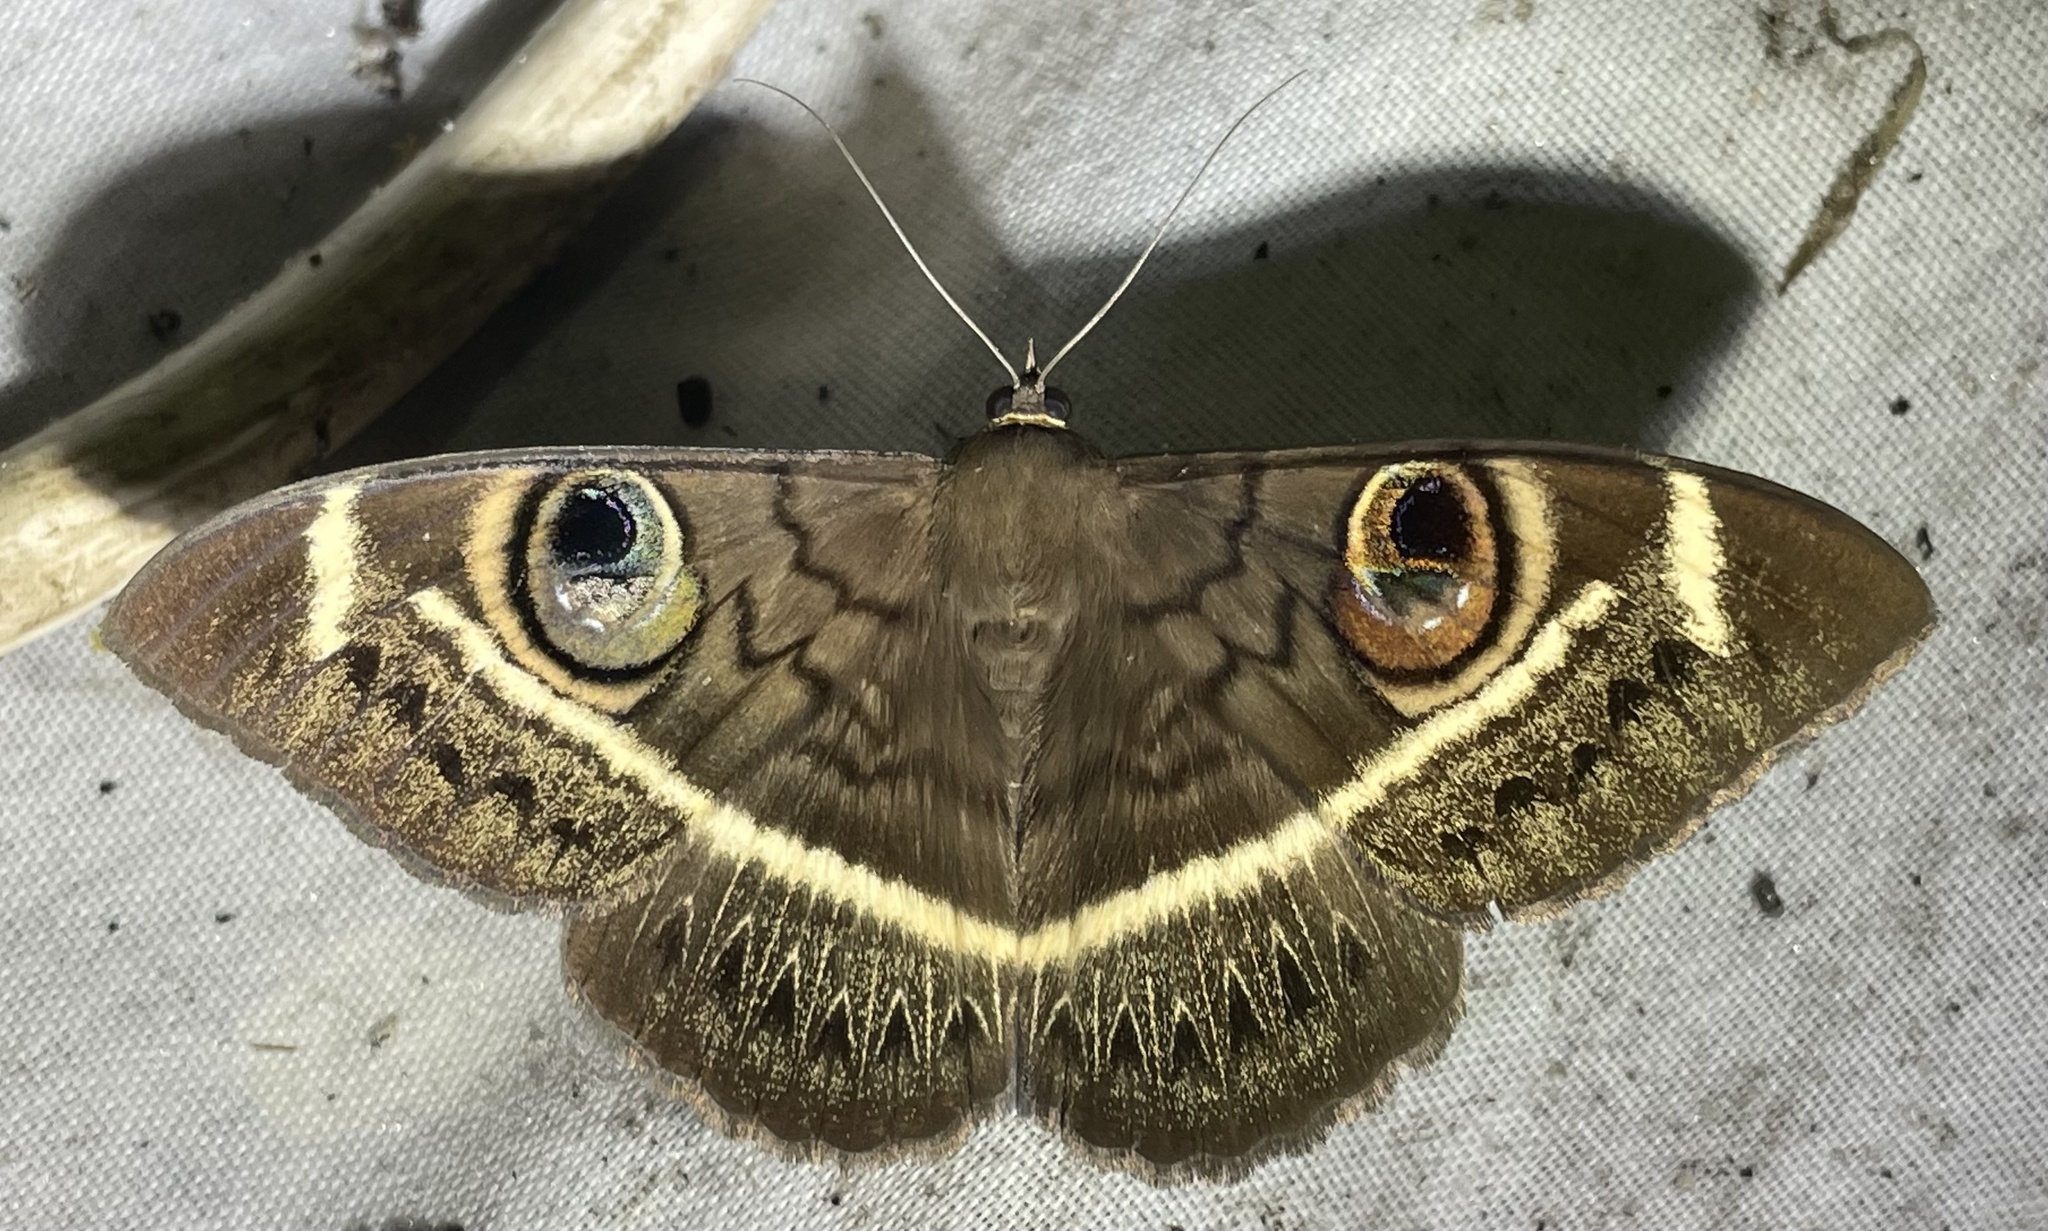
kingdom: Animalia
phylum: Arthropoda
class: Insecta
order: Lepidoptera
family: Erebidae
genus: Cyligramma
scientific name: Cyligramma latona
